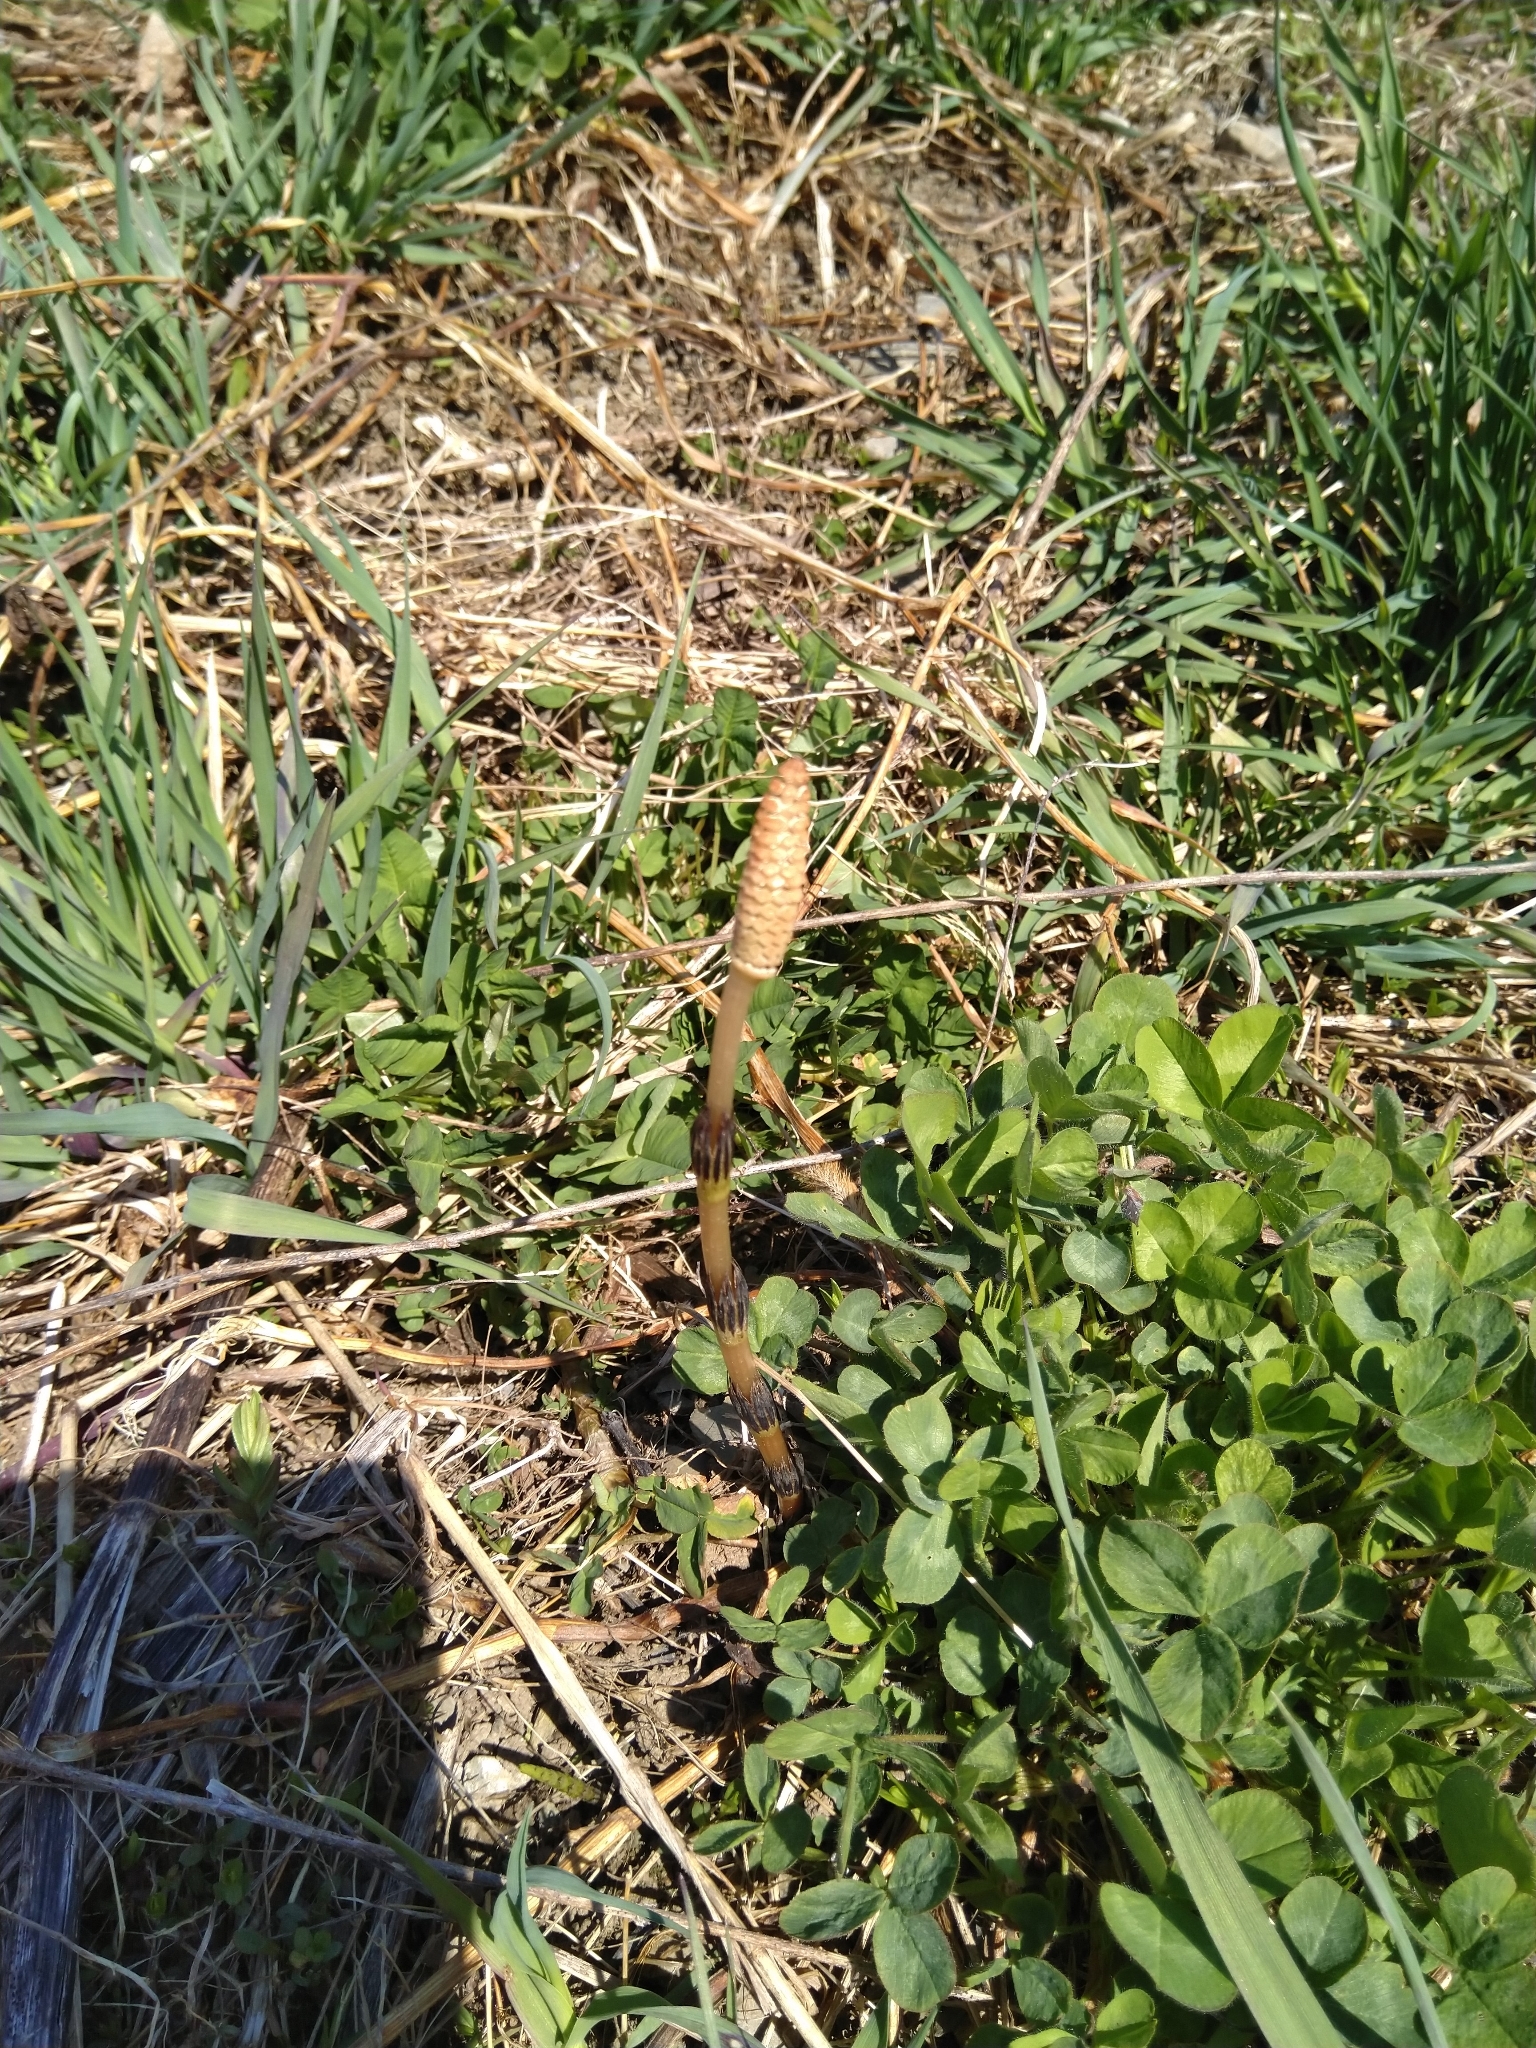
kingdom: Plantae
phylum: Tracheophyta
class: Polypodiopsida
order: Equisetales
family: Equisetaceae
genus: Equisetum
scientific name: Equisetum arvense
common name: Field horsetail
